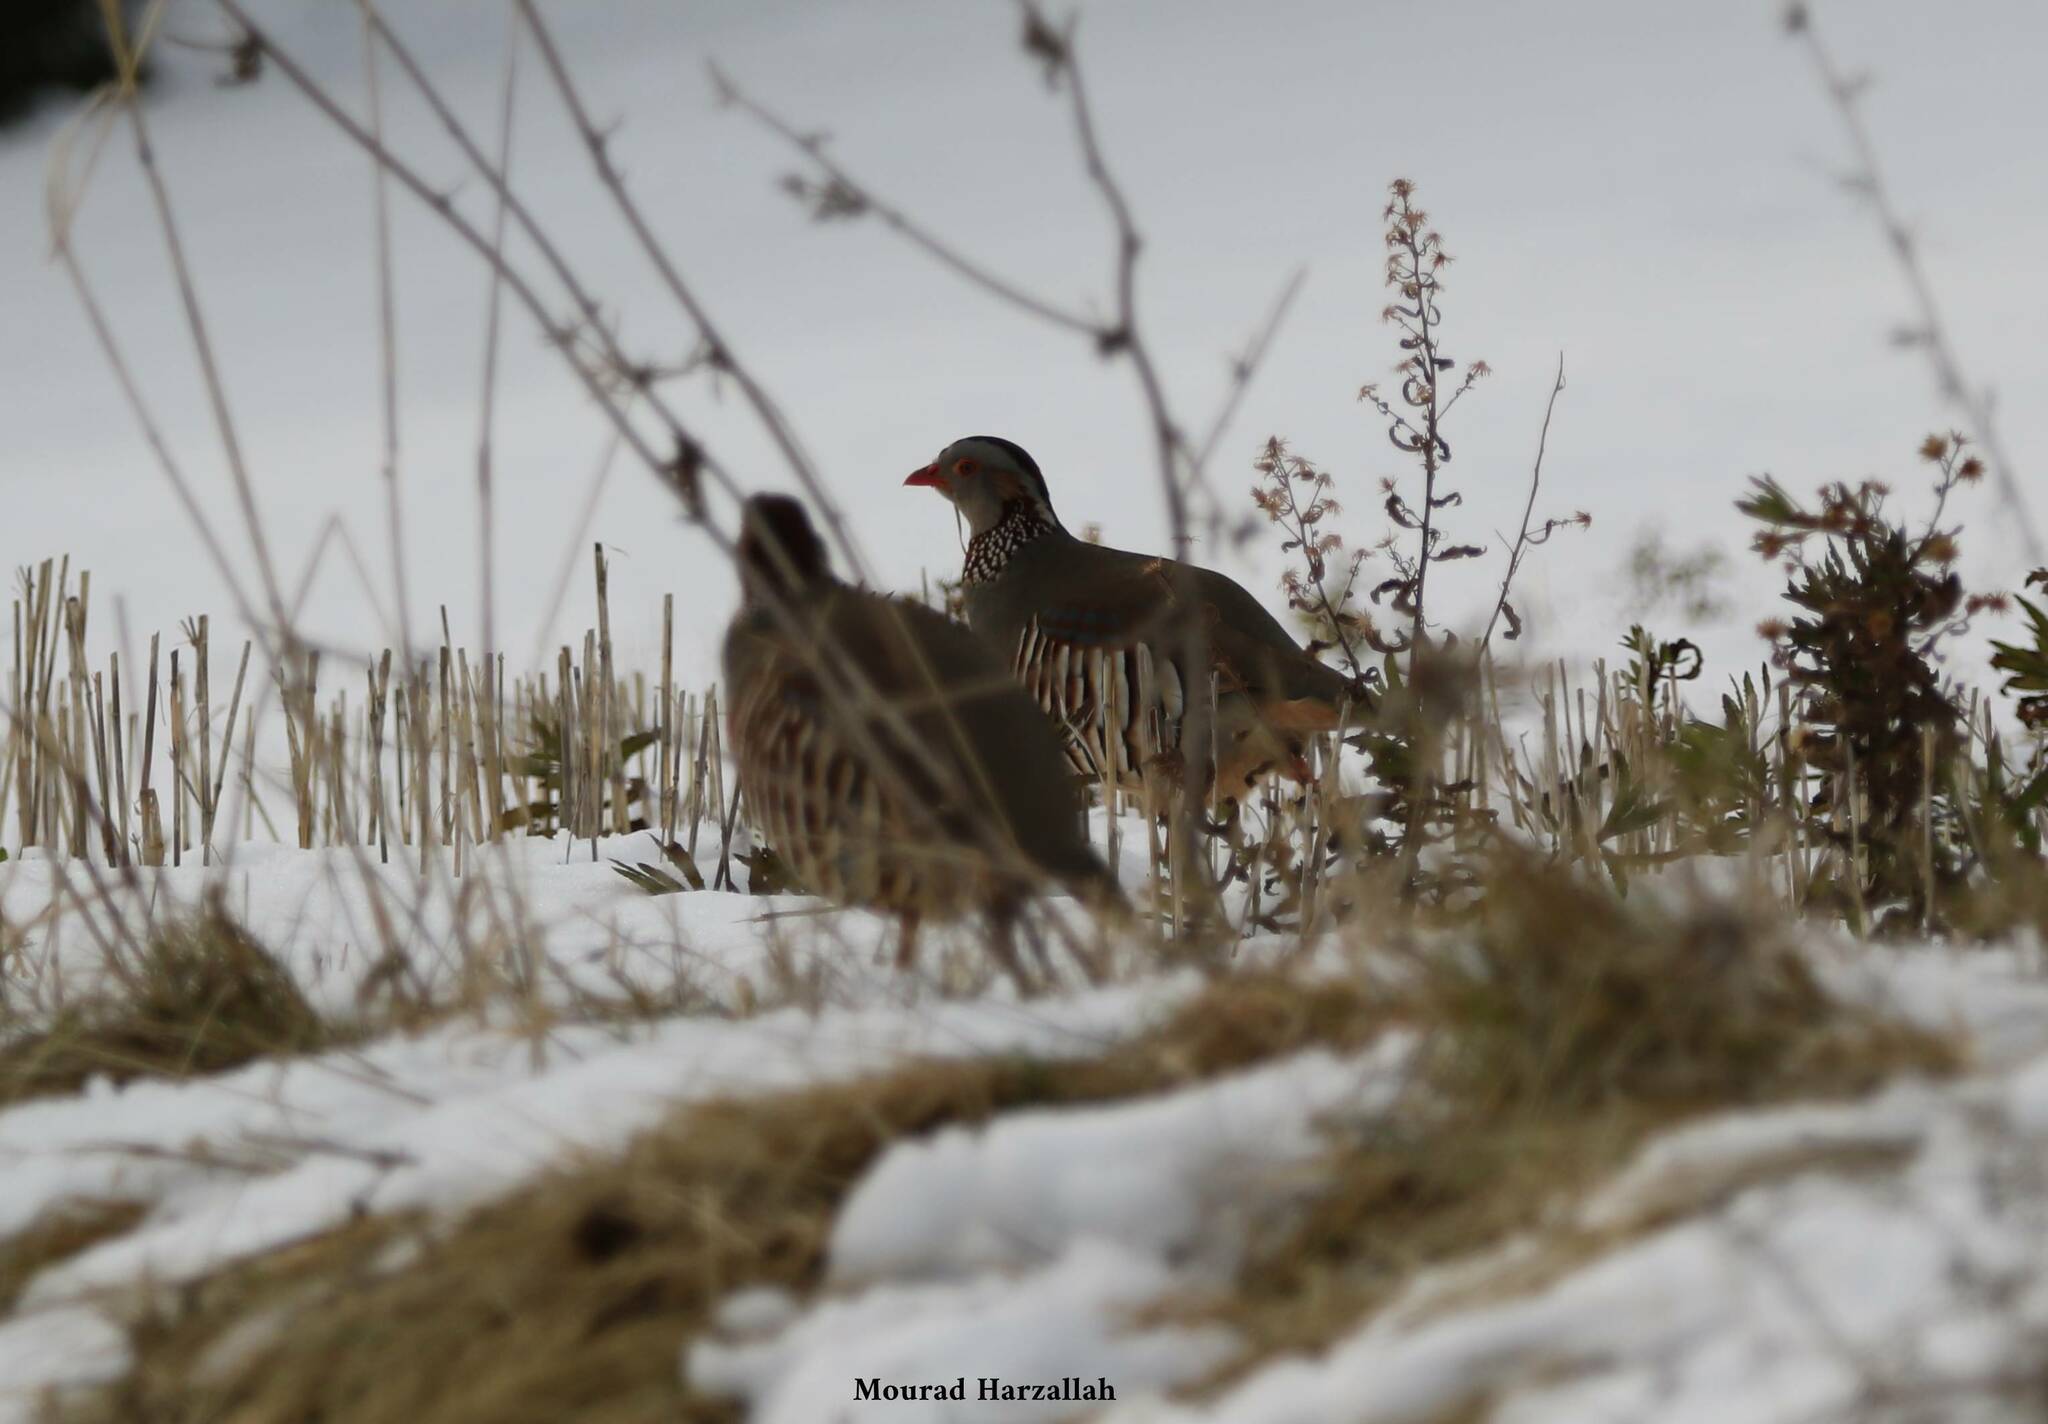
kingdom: Animalia
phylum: Chordata
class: Aves
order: Galliformes
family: Phasianidae
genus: Alectoris
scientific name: Alectoris barbara
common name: Barbary partridge
